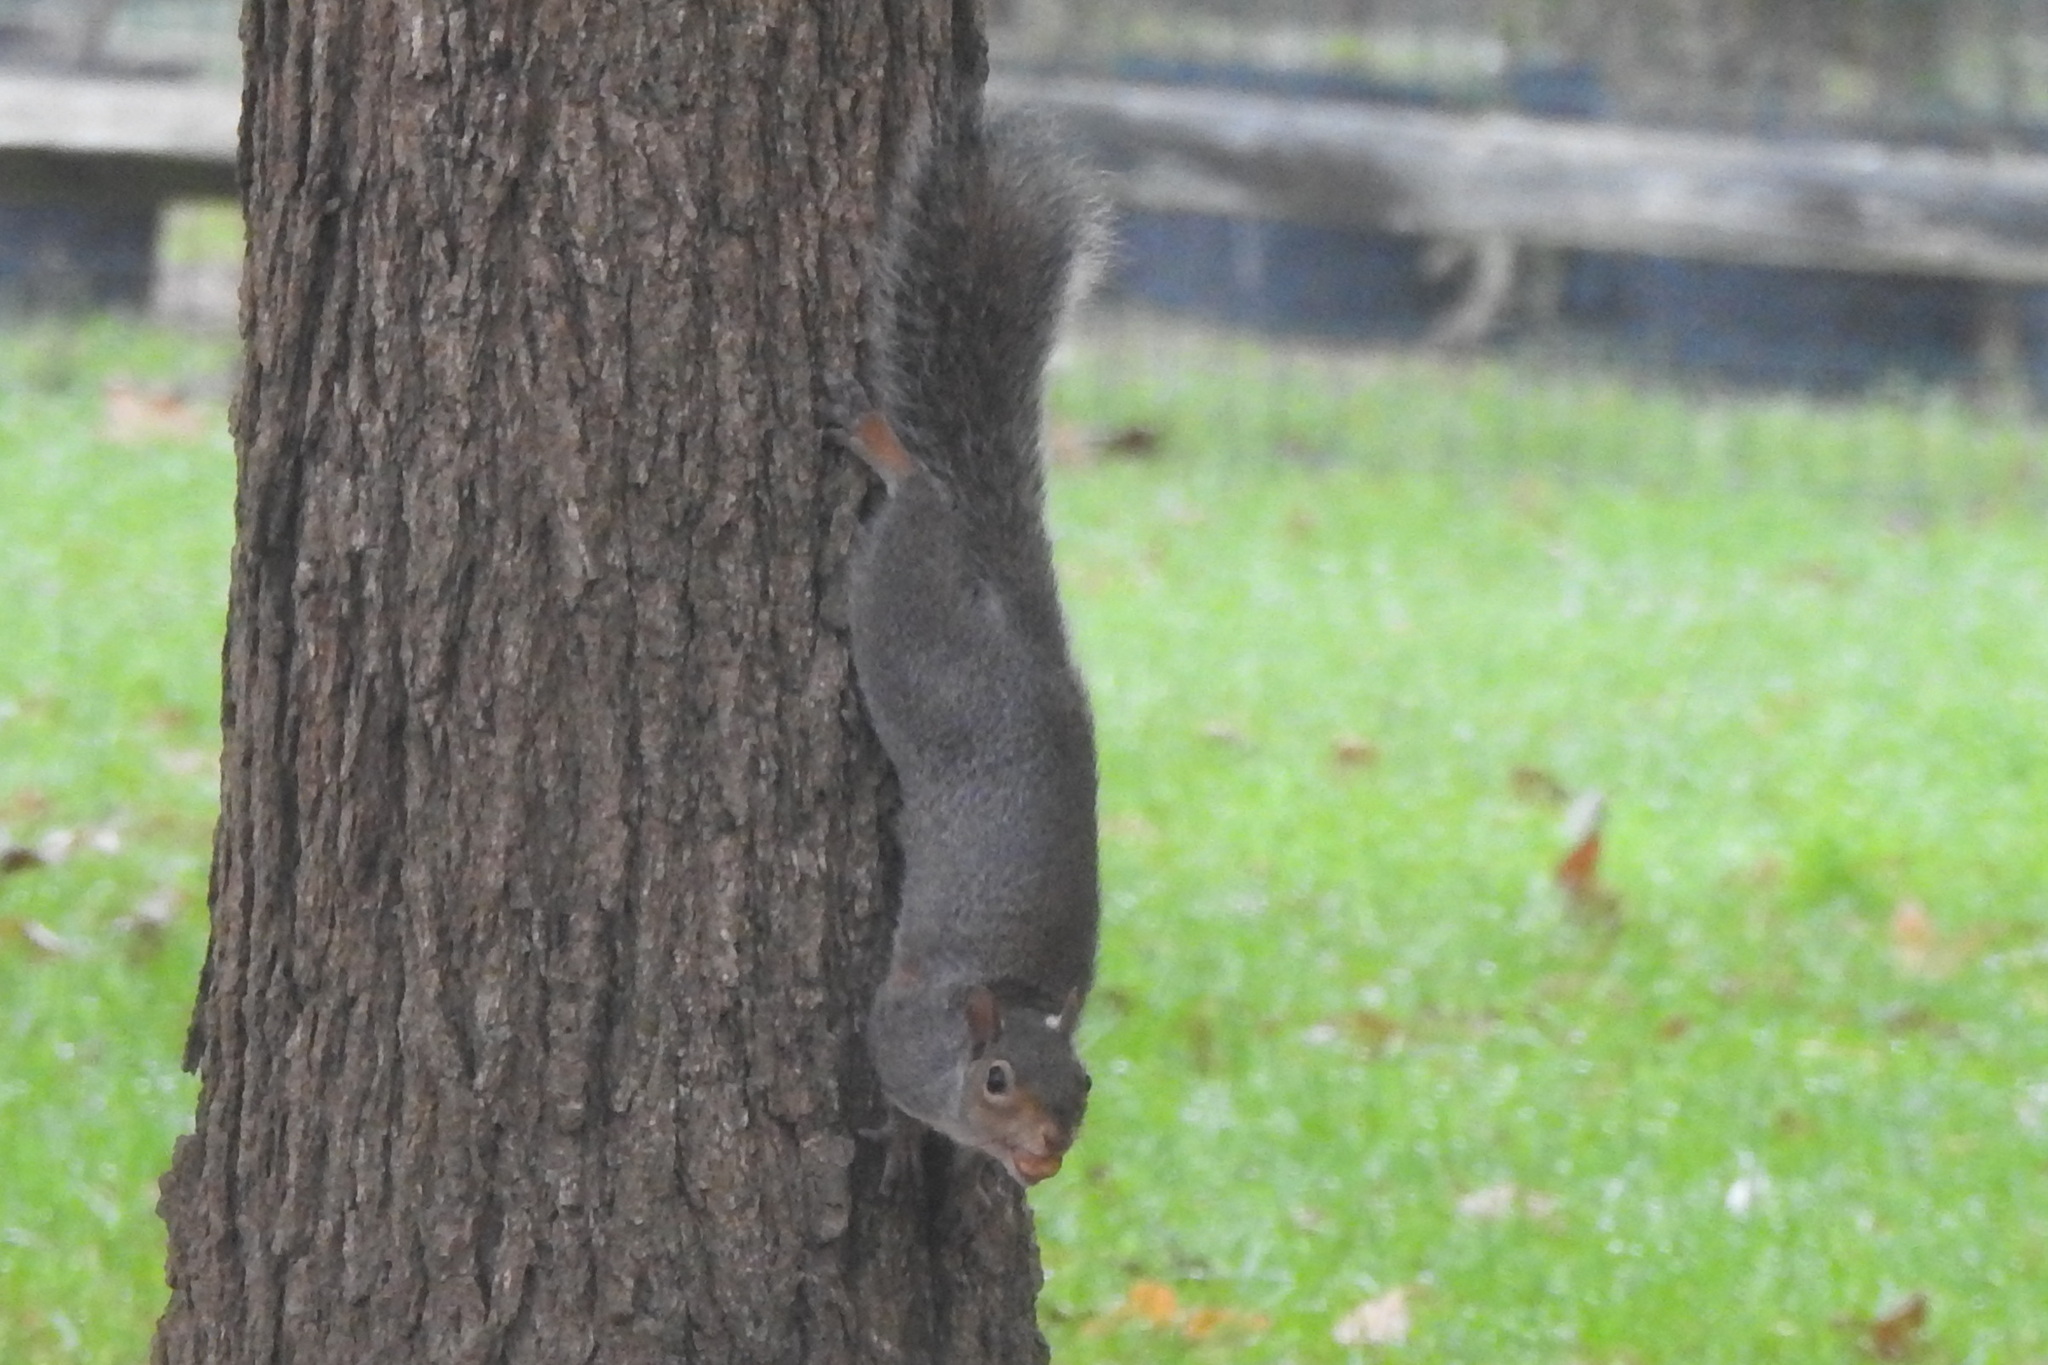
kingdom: Animalia
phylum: Chordata
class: Mammalia
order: Rodentia
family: Sciuridae
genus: Sciurus
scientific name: Sciurus carolinensis
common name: Eastern gray squirrel
